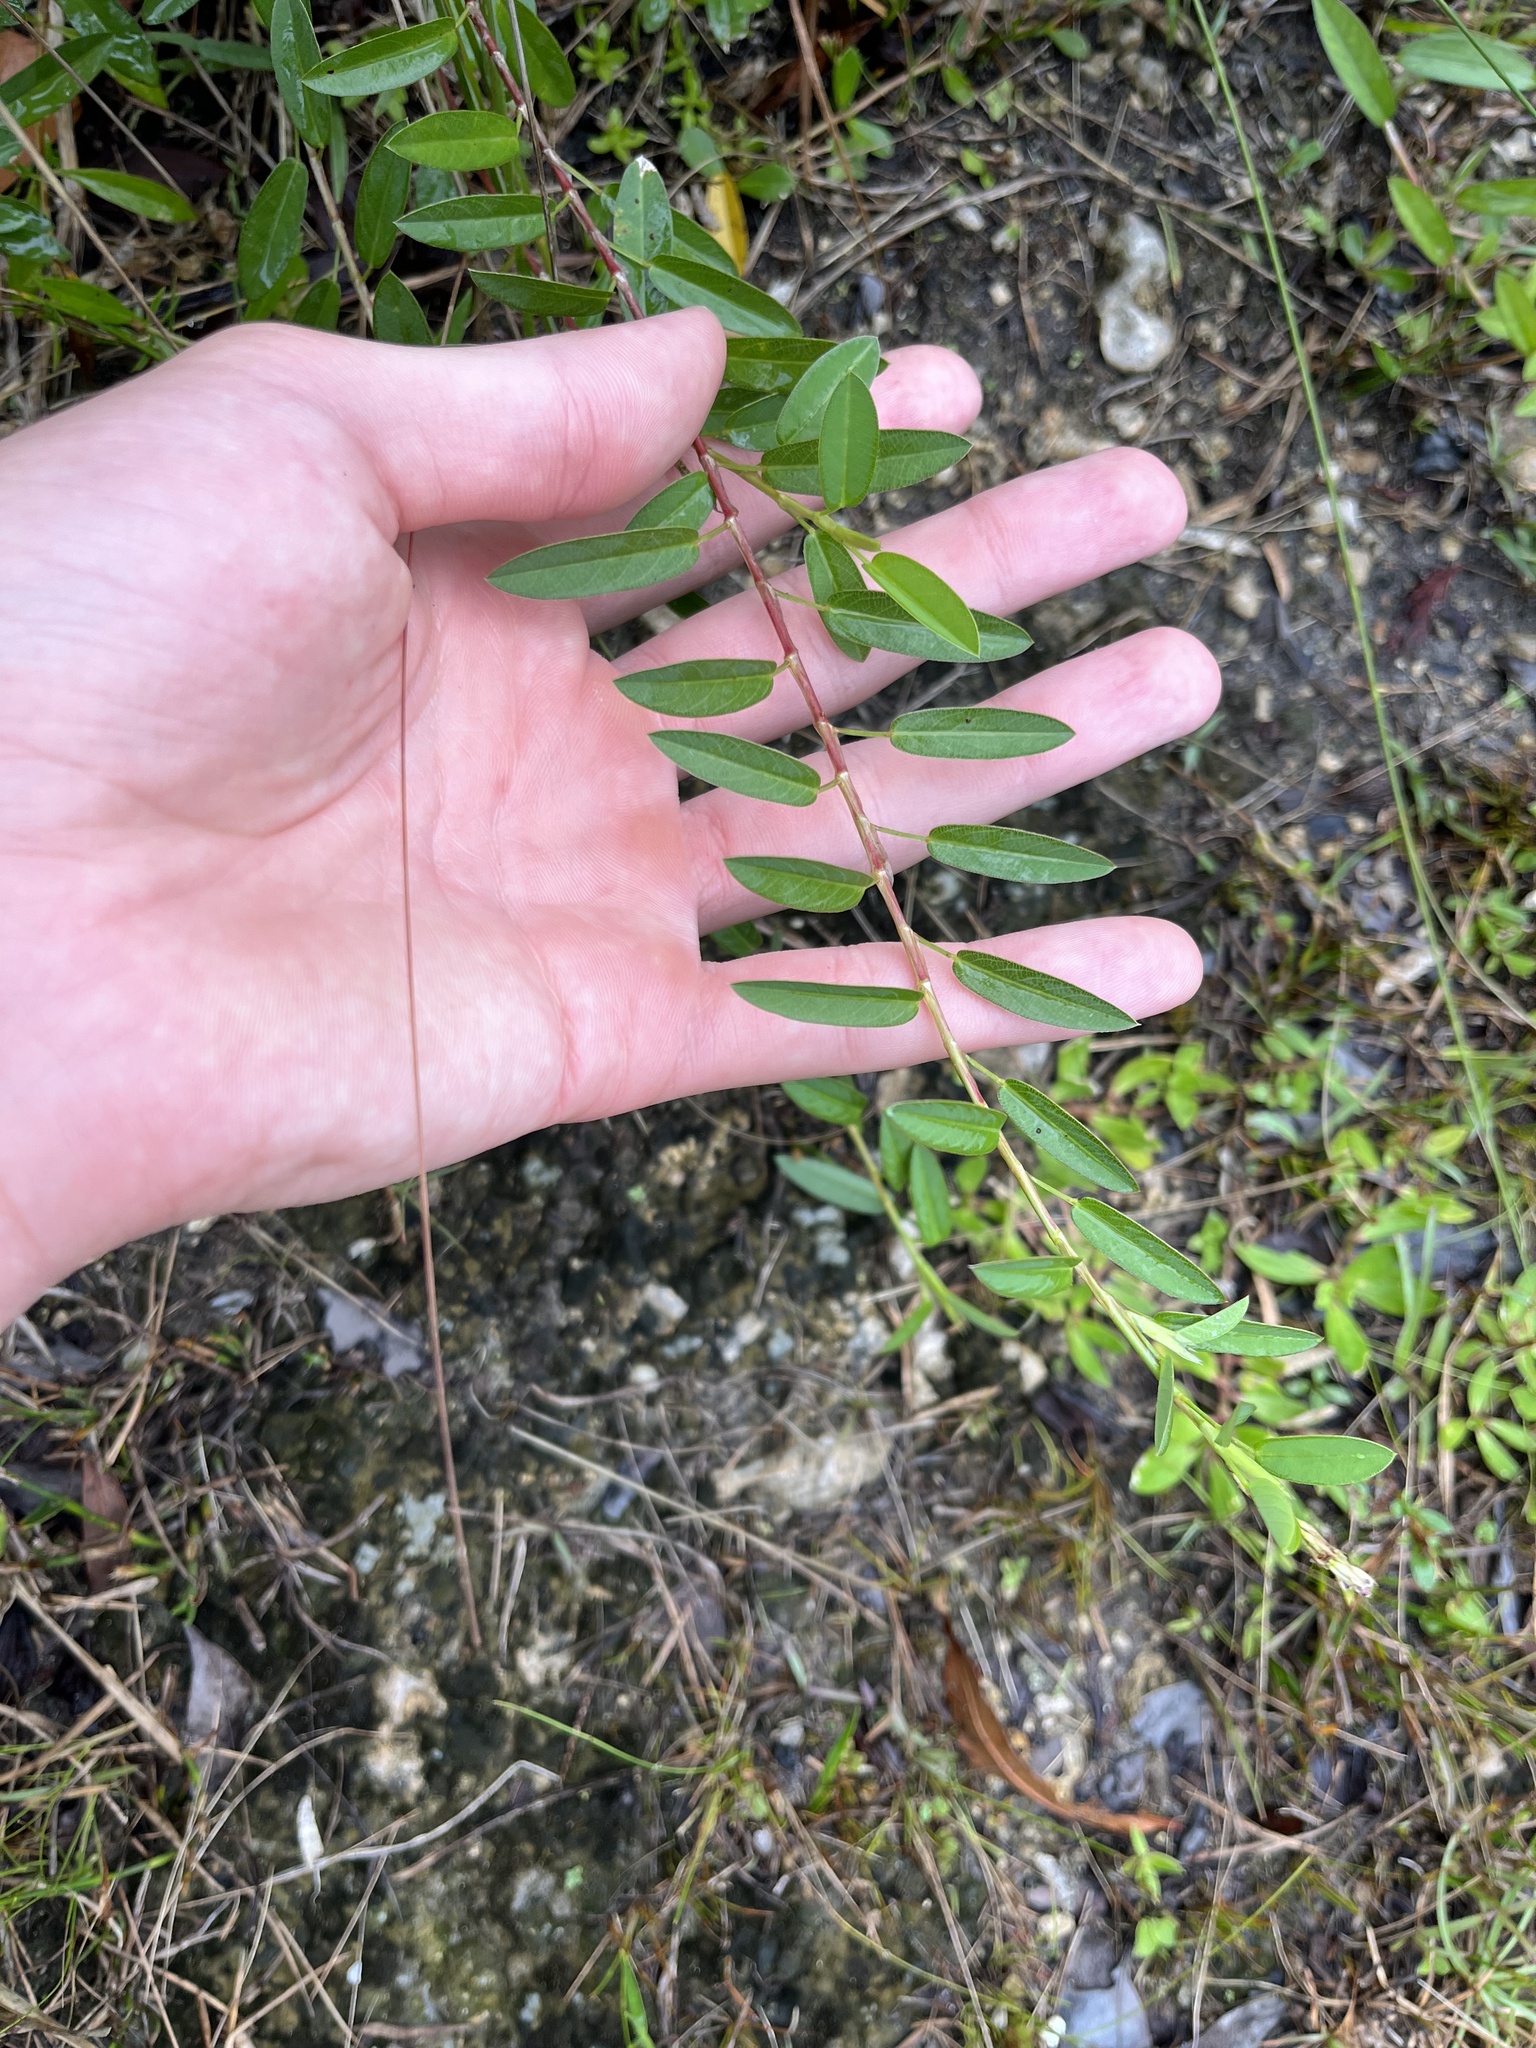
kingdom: Plantae
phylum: Tracheophyta
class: Magnoliopsida
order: Fabales
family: Fabaceae
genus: Alysicarpus
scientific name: Alysicarpus vaginalis
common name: White moneywort
